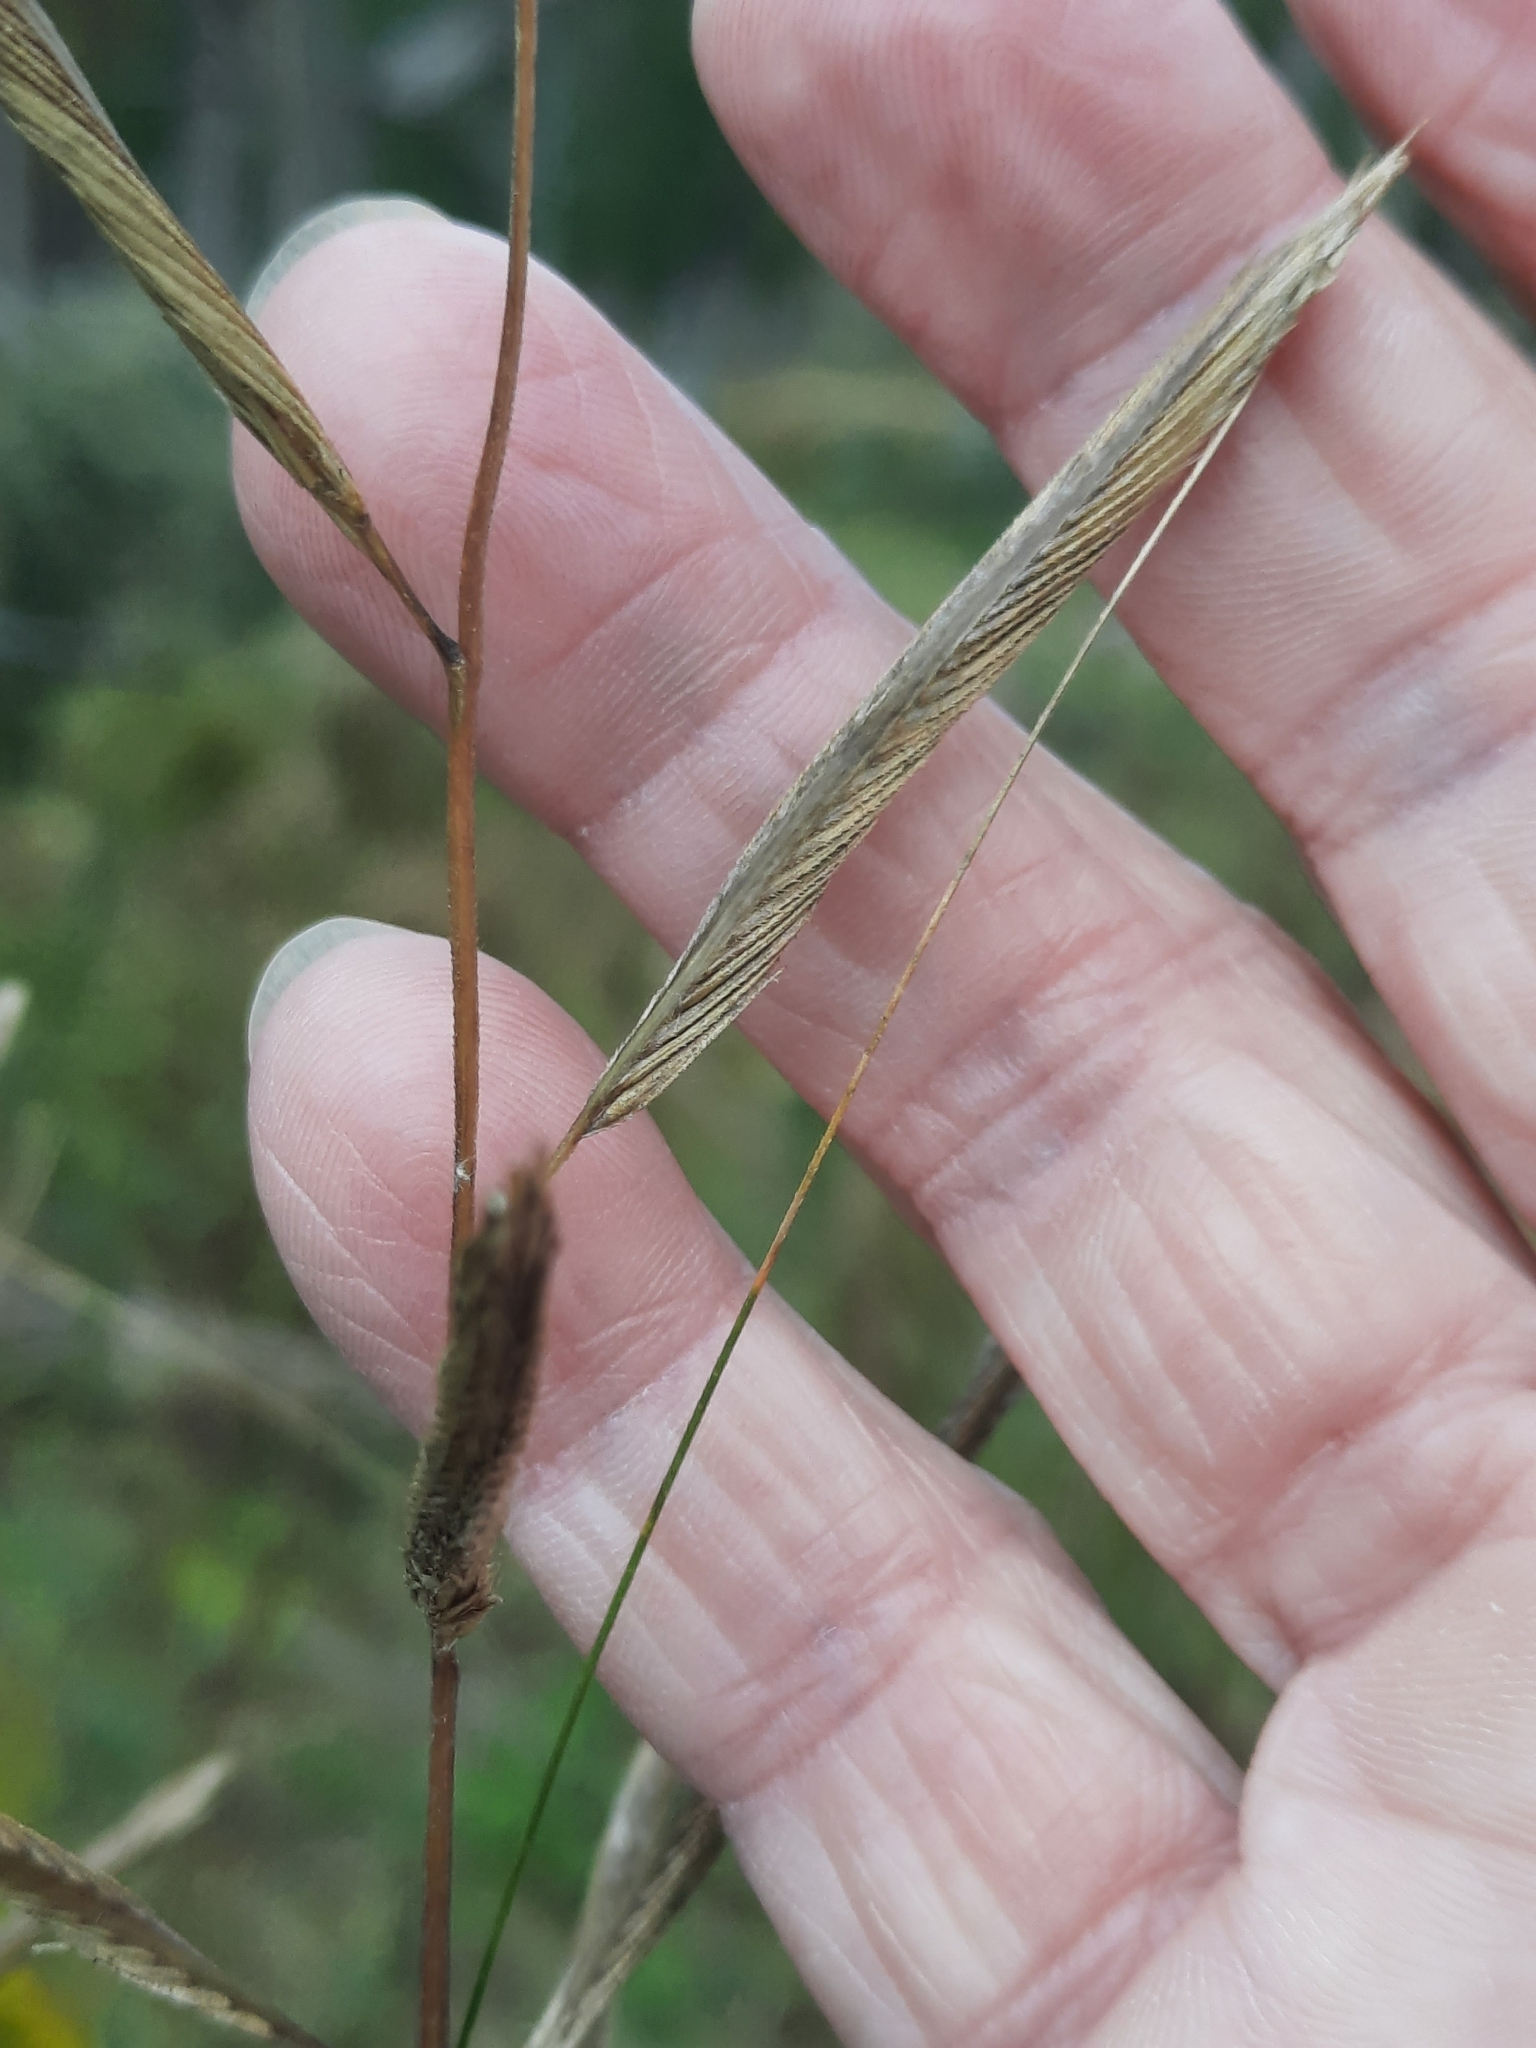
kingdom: Plantae
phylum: Tracheophyta
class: Liliopsida
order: Poales
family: Poaceae
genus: Sporobolus
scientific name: Sporobolus michauxianus
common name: Freshwater cordgrass
